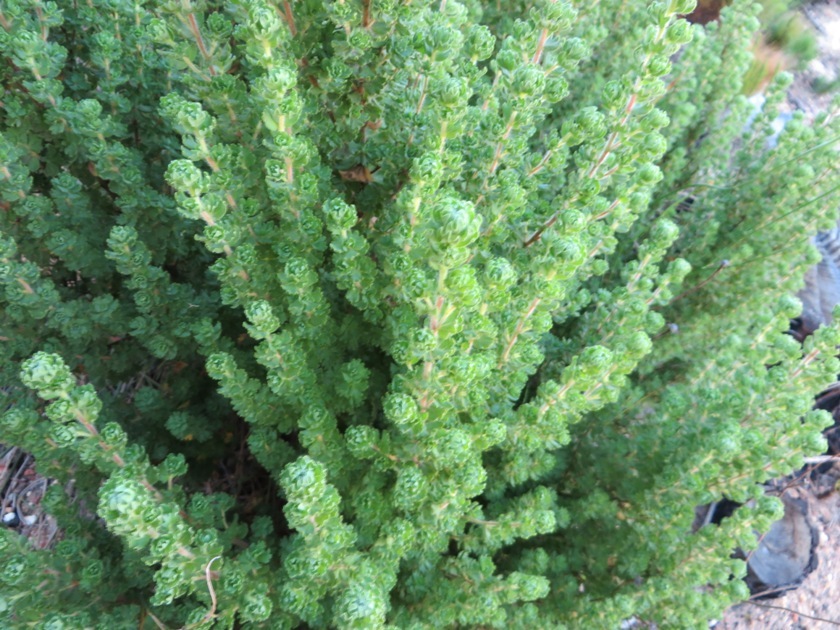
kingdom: Plantae
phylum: Tracheophyta
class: Magnoliopsida
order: Rosales
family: Rosaceae
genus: Cliffortia
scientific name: Cliffortia polygonifolia
